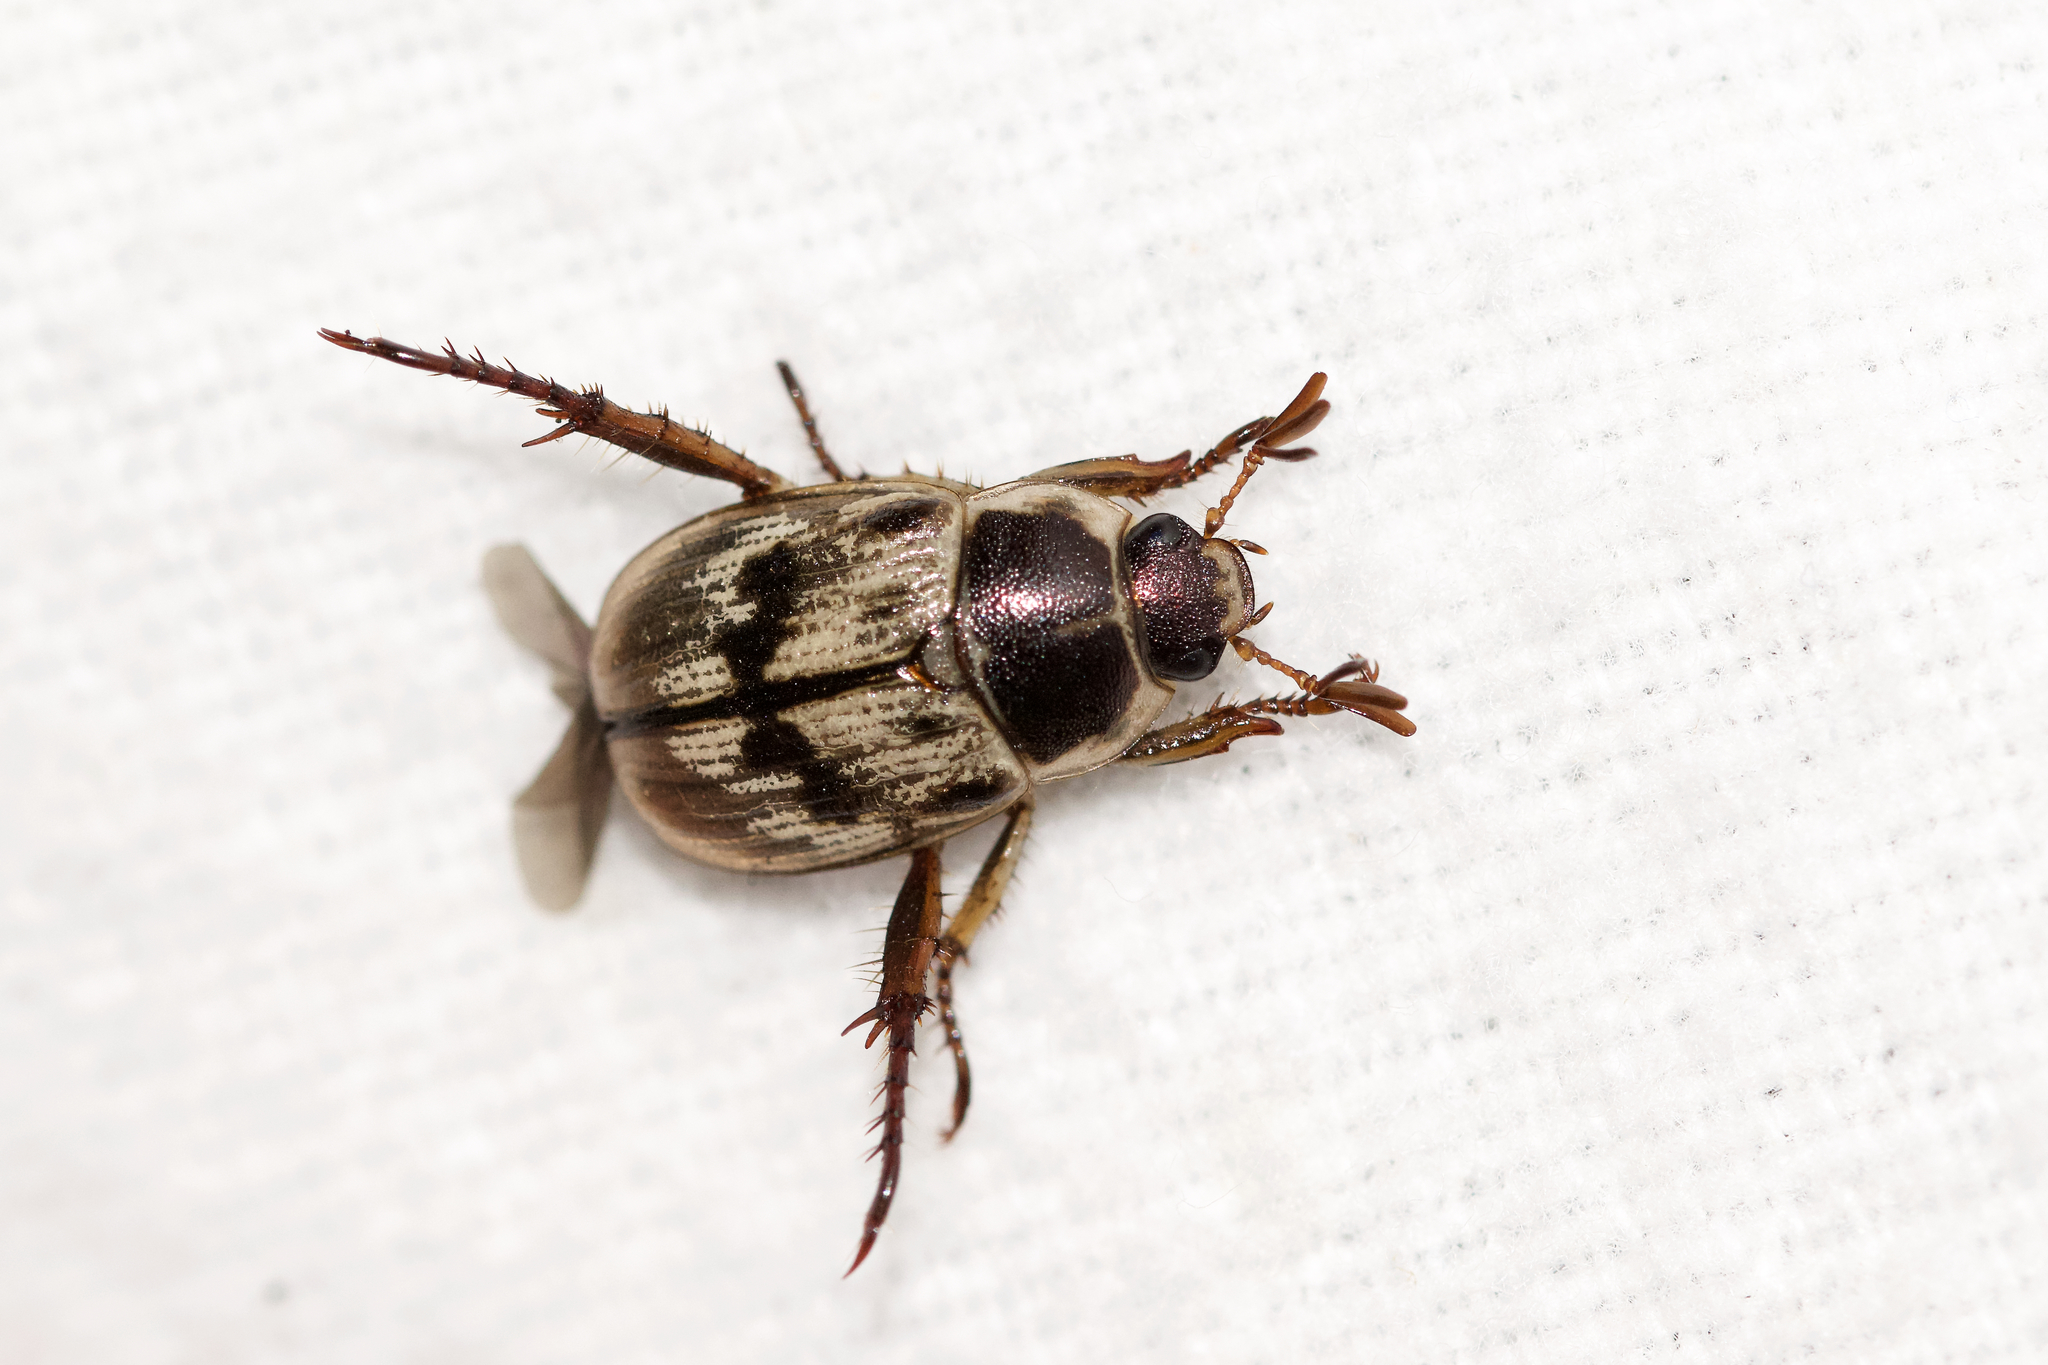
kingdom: Animalia
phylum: Arthropoda
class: Insecta
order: Coleoptera
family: Scarabaeidae
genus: Exomala
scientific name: Exomala orientalis
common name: Oriental beetle
